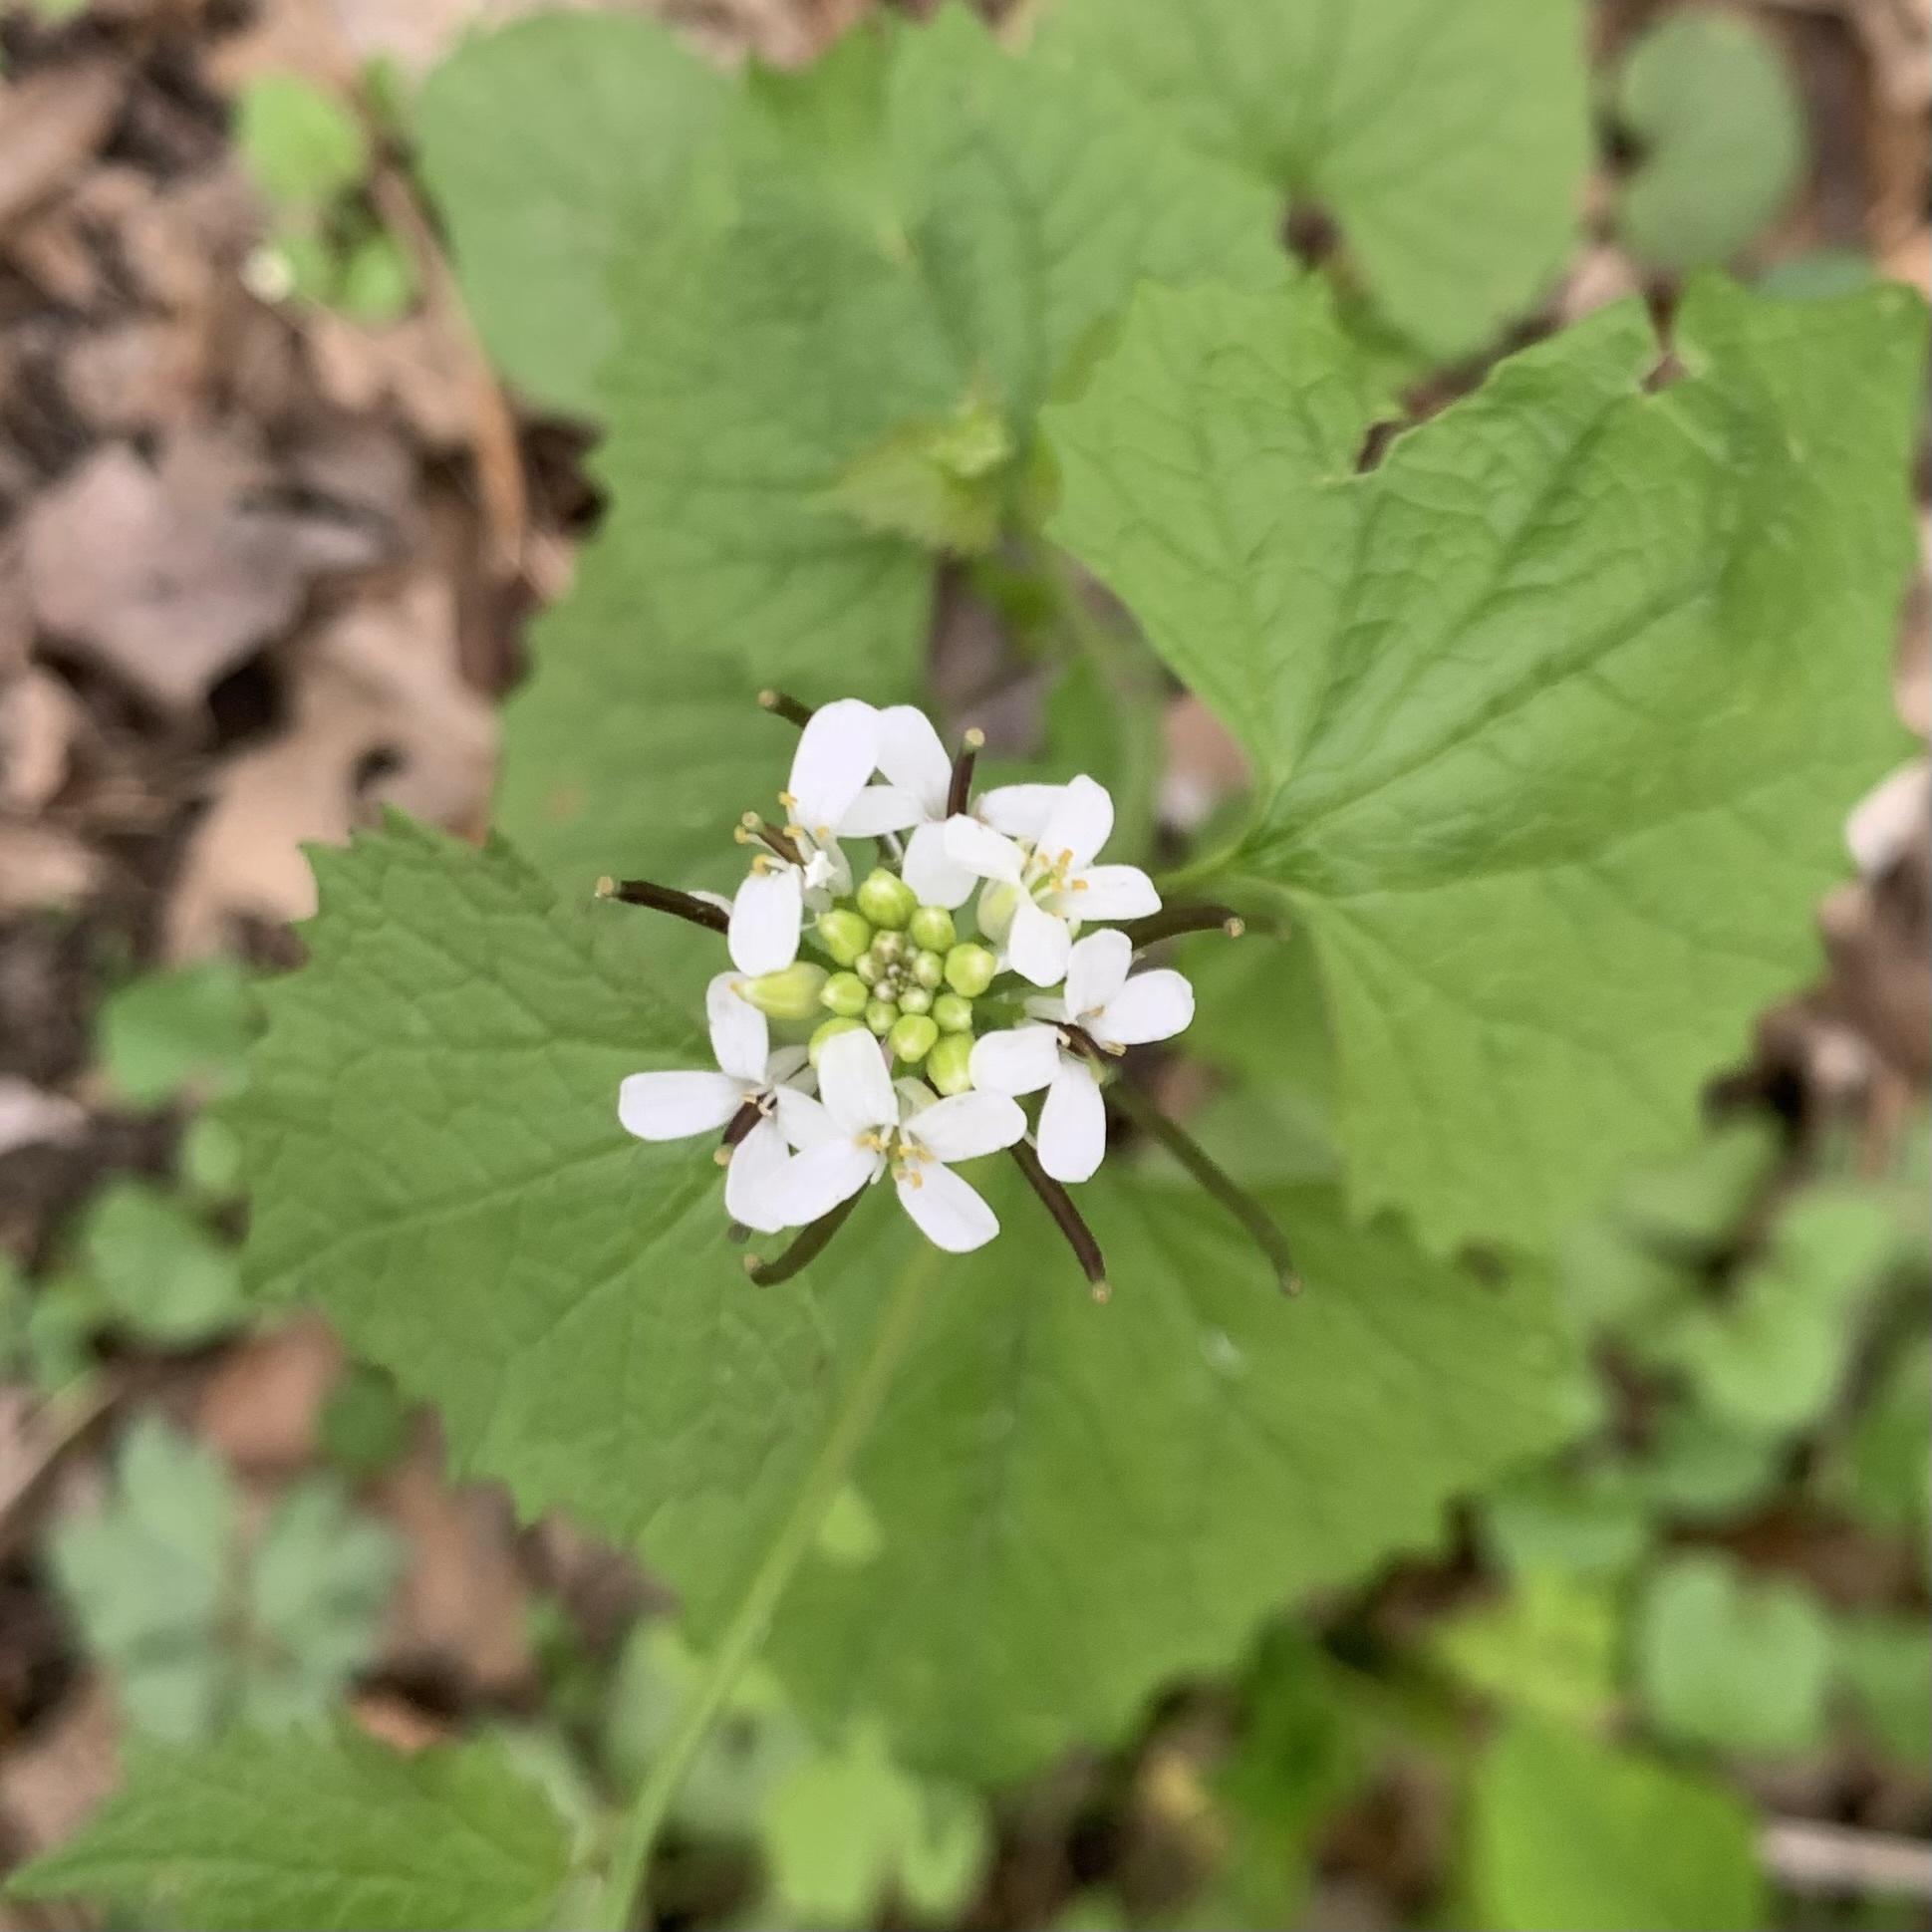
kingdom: Plantae
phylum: Tracheophyta
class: Magnoliopsida
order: Brassicales
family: Brassicaceae
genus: Alliaria
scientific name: Alliaria petiolata
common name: Garlic mustard
